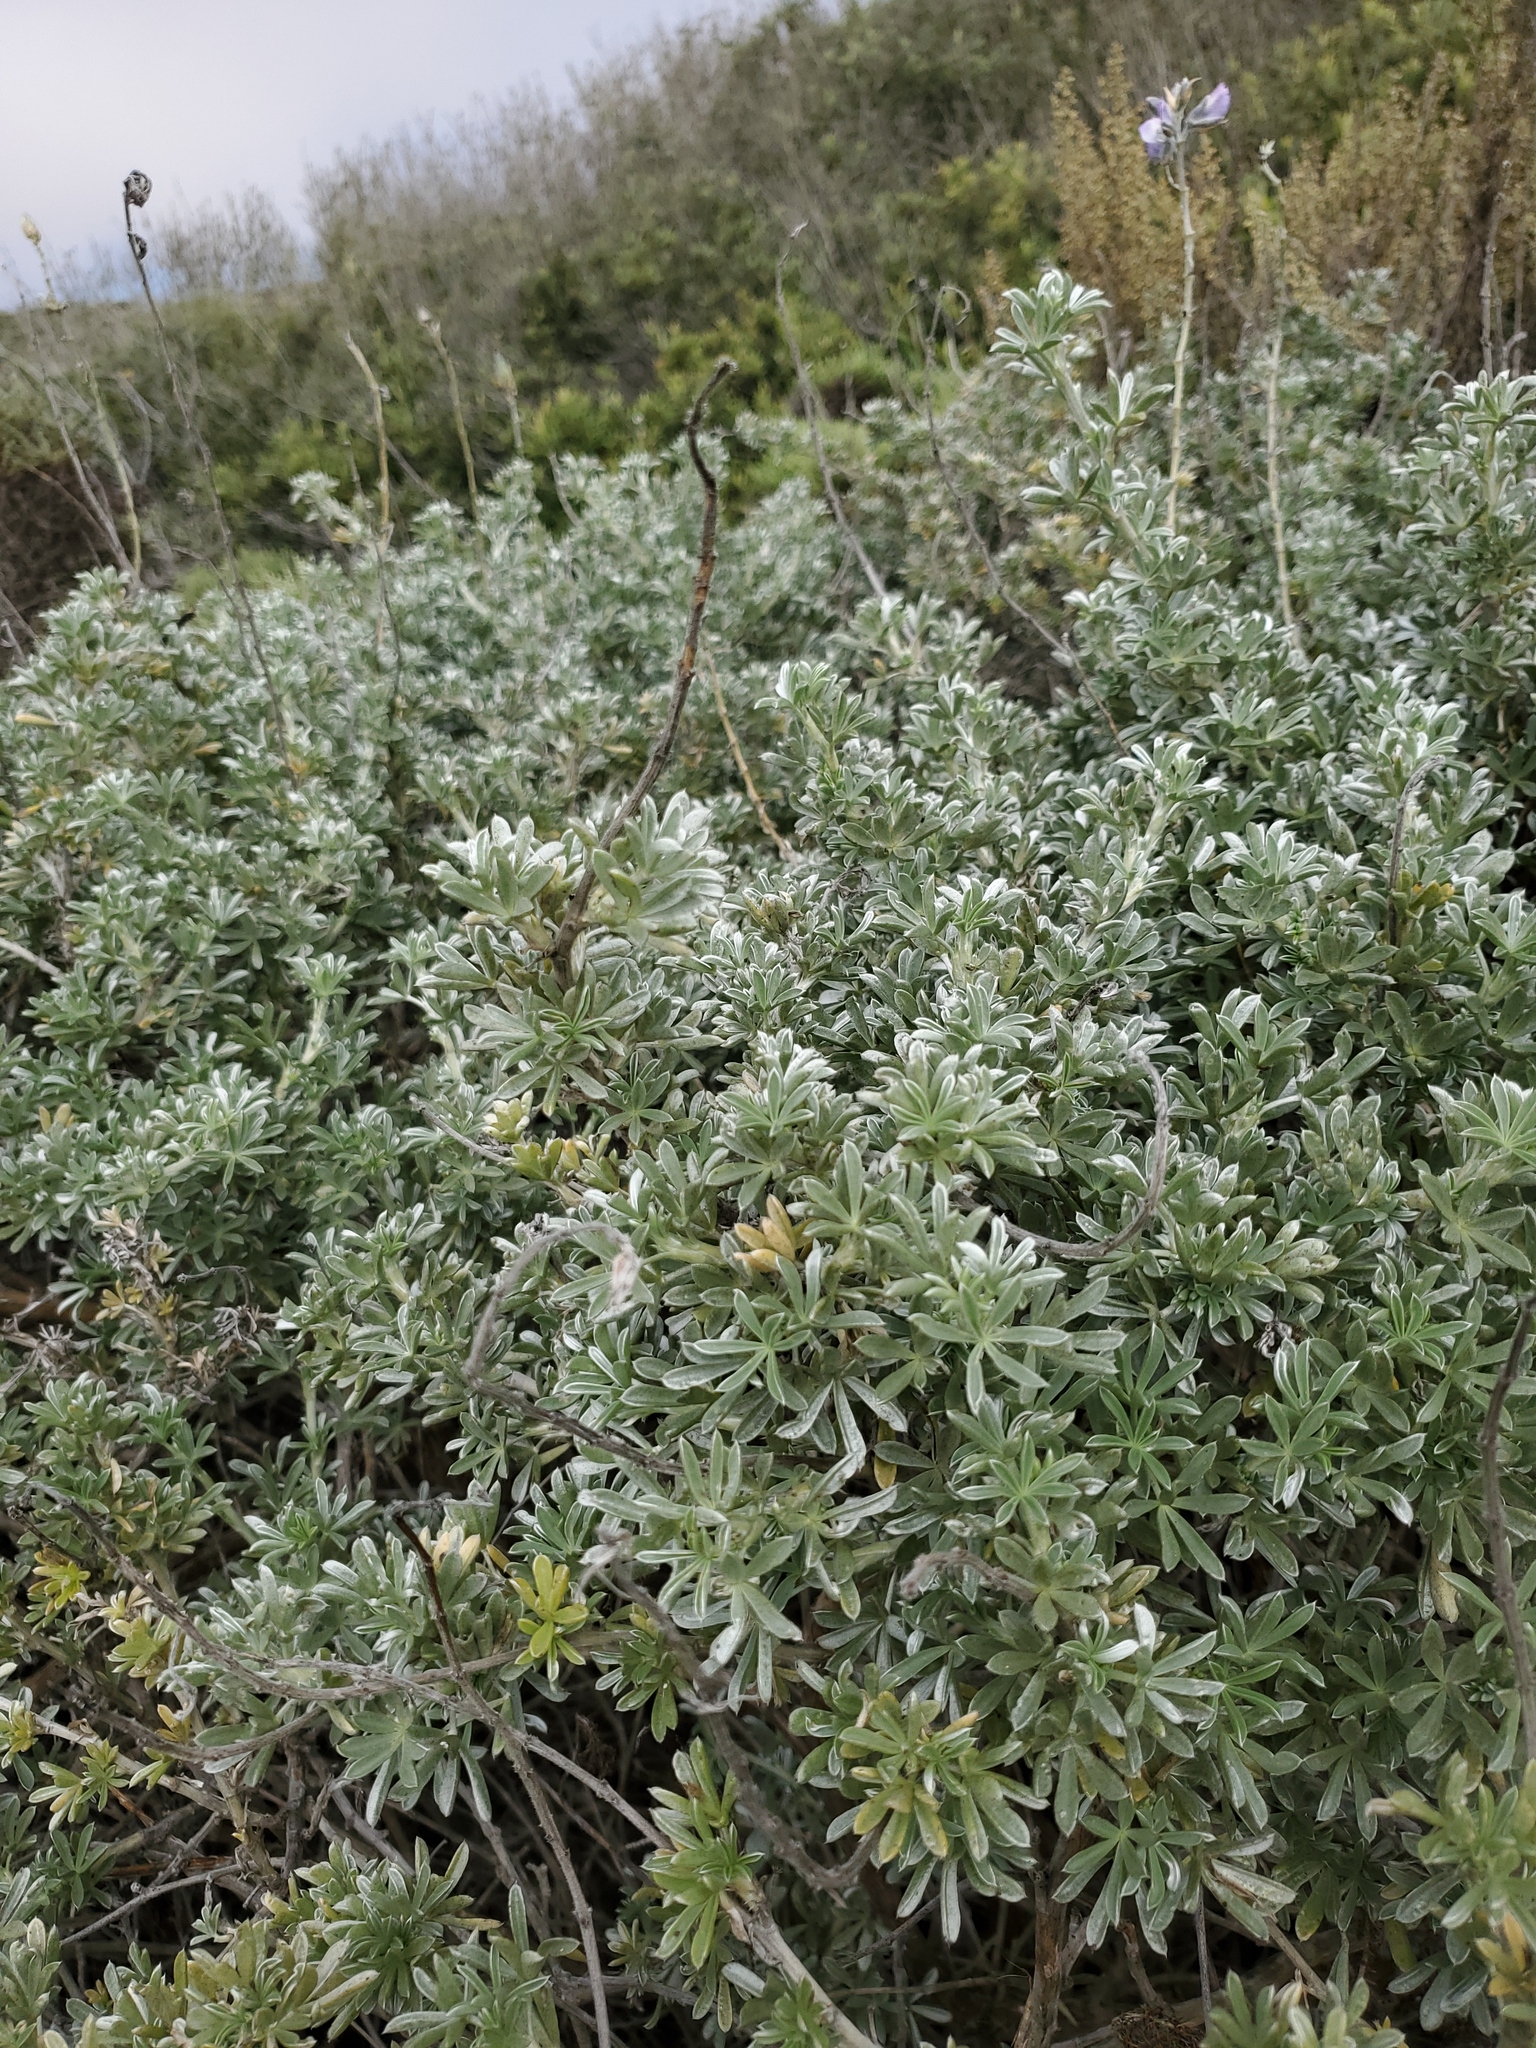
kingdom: Plantae
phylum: Tracheophyta
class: Magnoliopsida
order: Fabales
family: Fabaceae
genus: Lupinus
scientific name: Lupinus chamissonis
